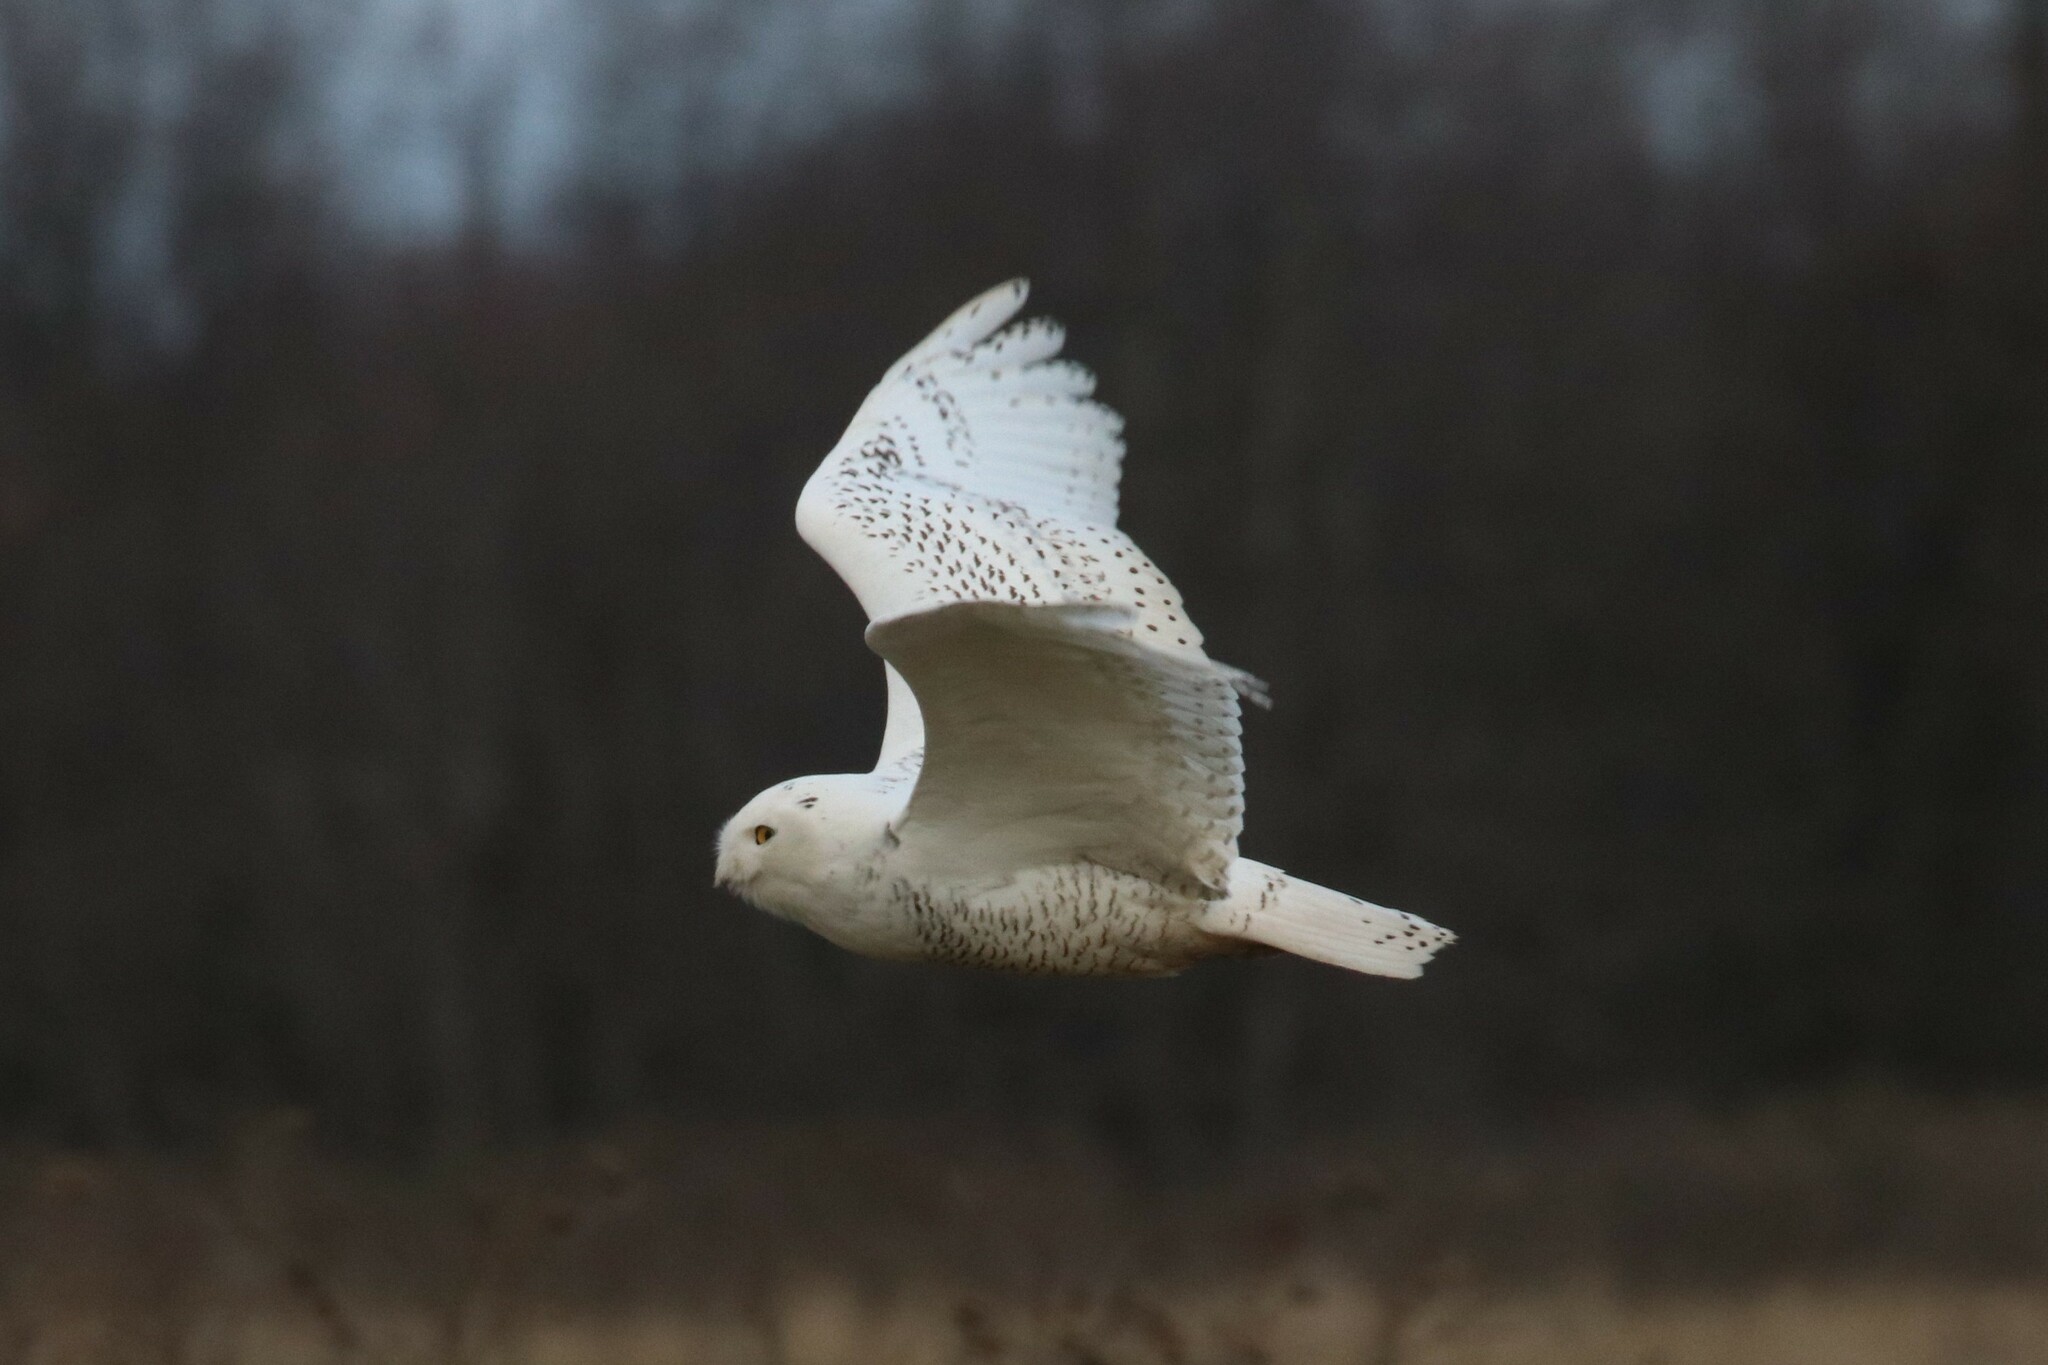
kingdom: Animalia
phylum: Chordata
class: Aves
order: Strigiformes
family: Strigidae
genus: Bubo
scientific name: Bubo scandiacus
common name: Snowy owl
